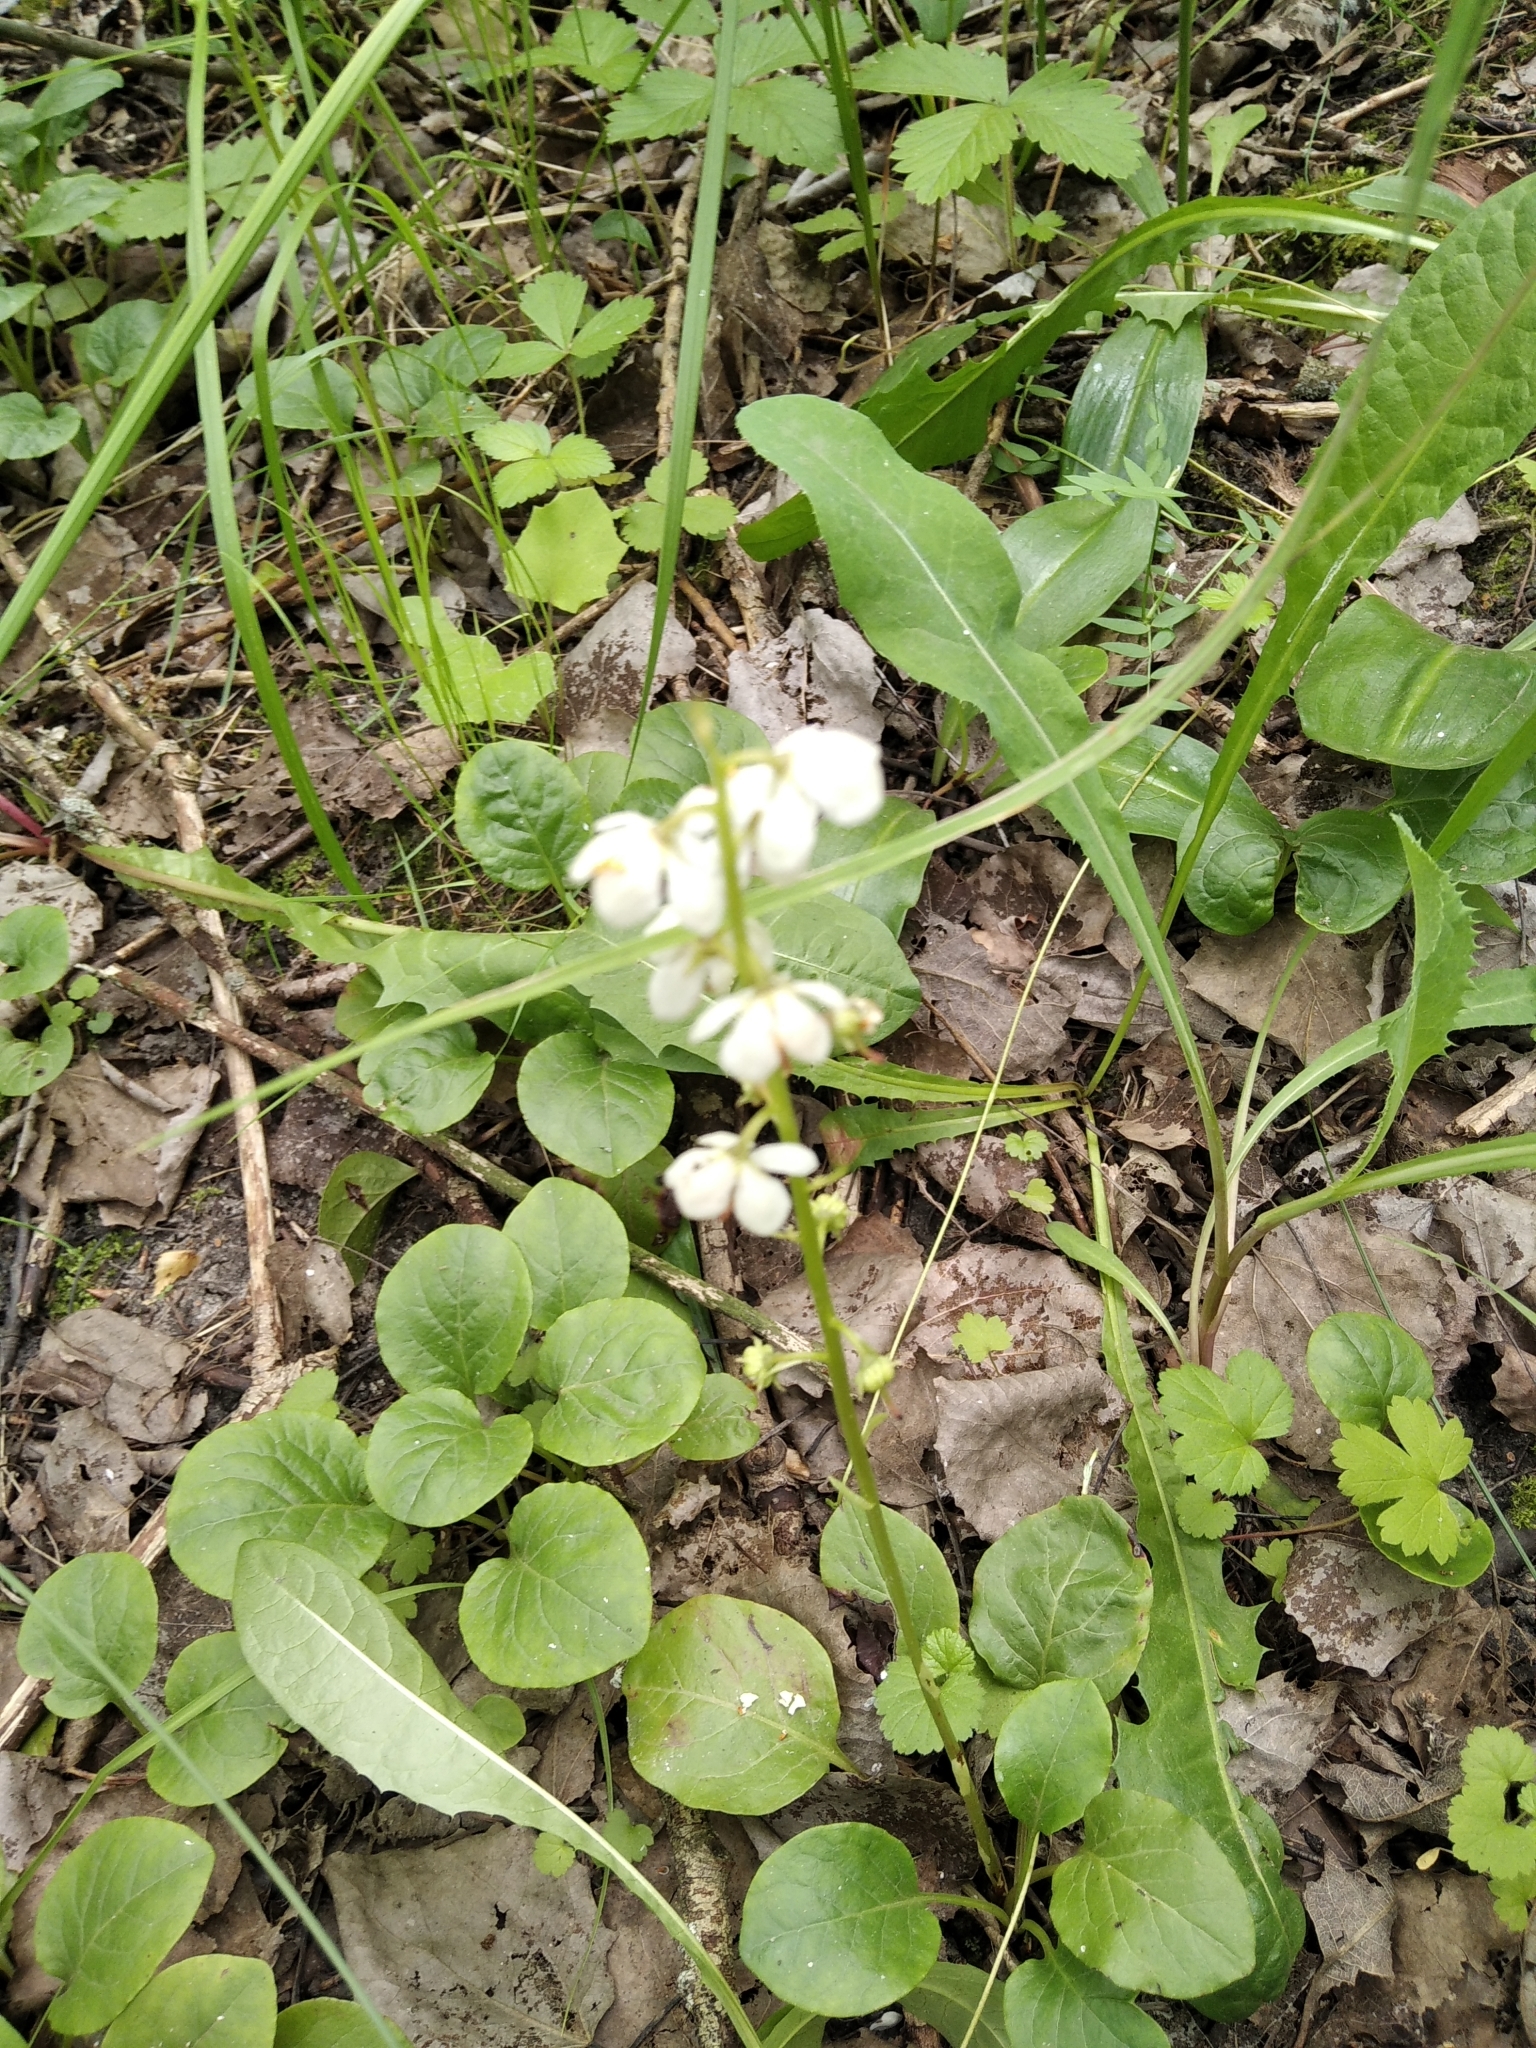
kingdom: Plantae
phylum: Tracheophyta
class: Magnoliopsida
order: Ericales
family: Ericaceae
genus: Pyrola
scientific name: Pyrola rotundifolia
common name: Round-leaved wintergreen
